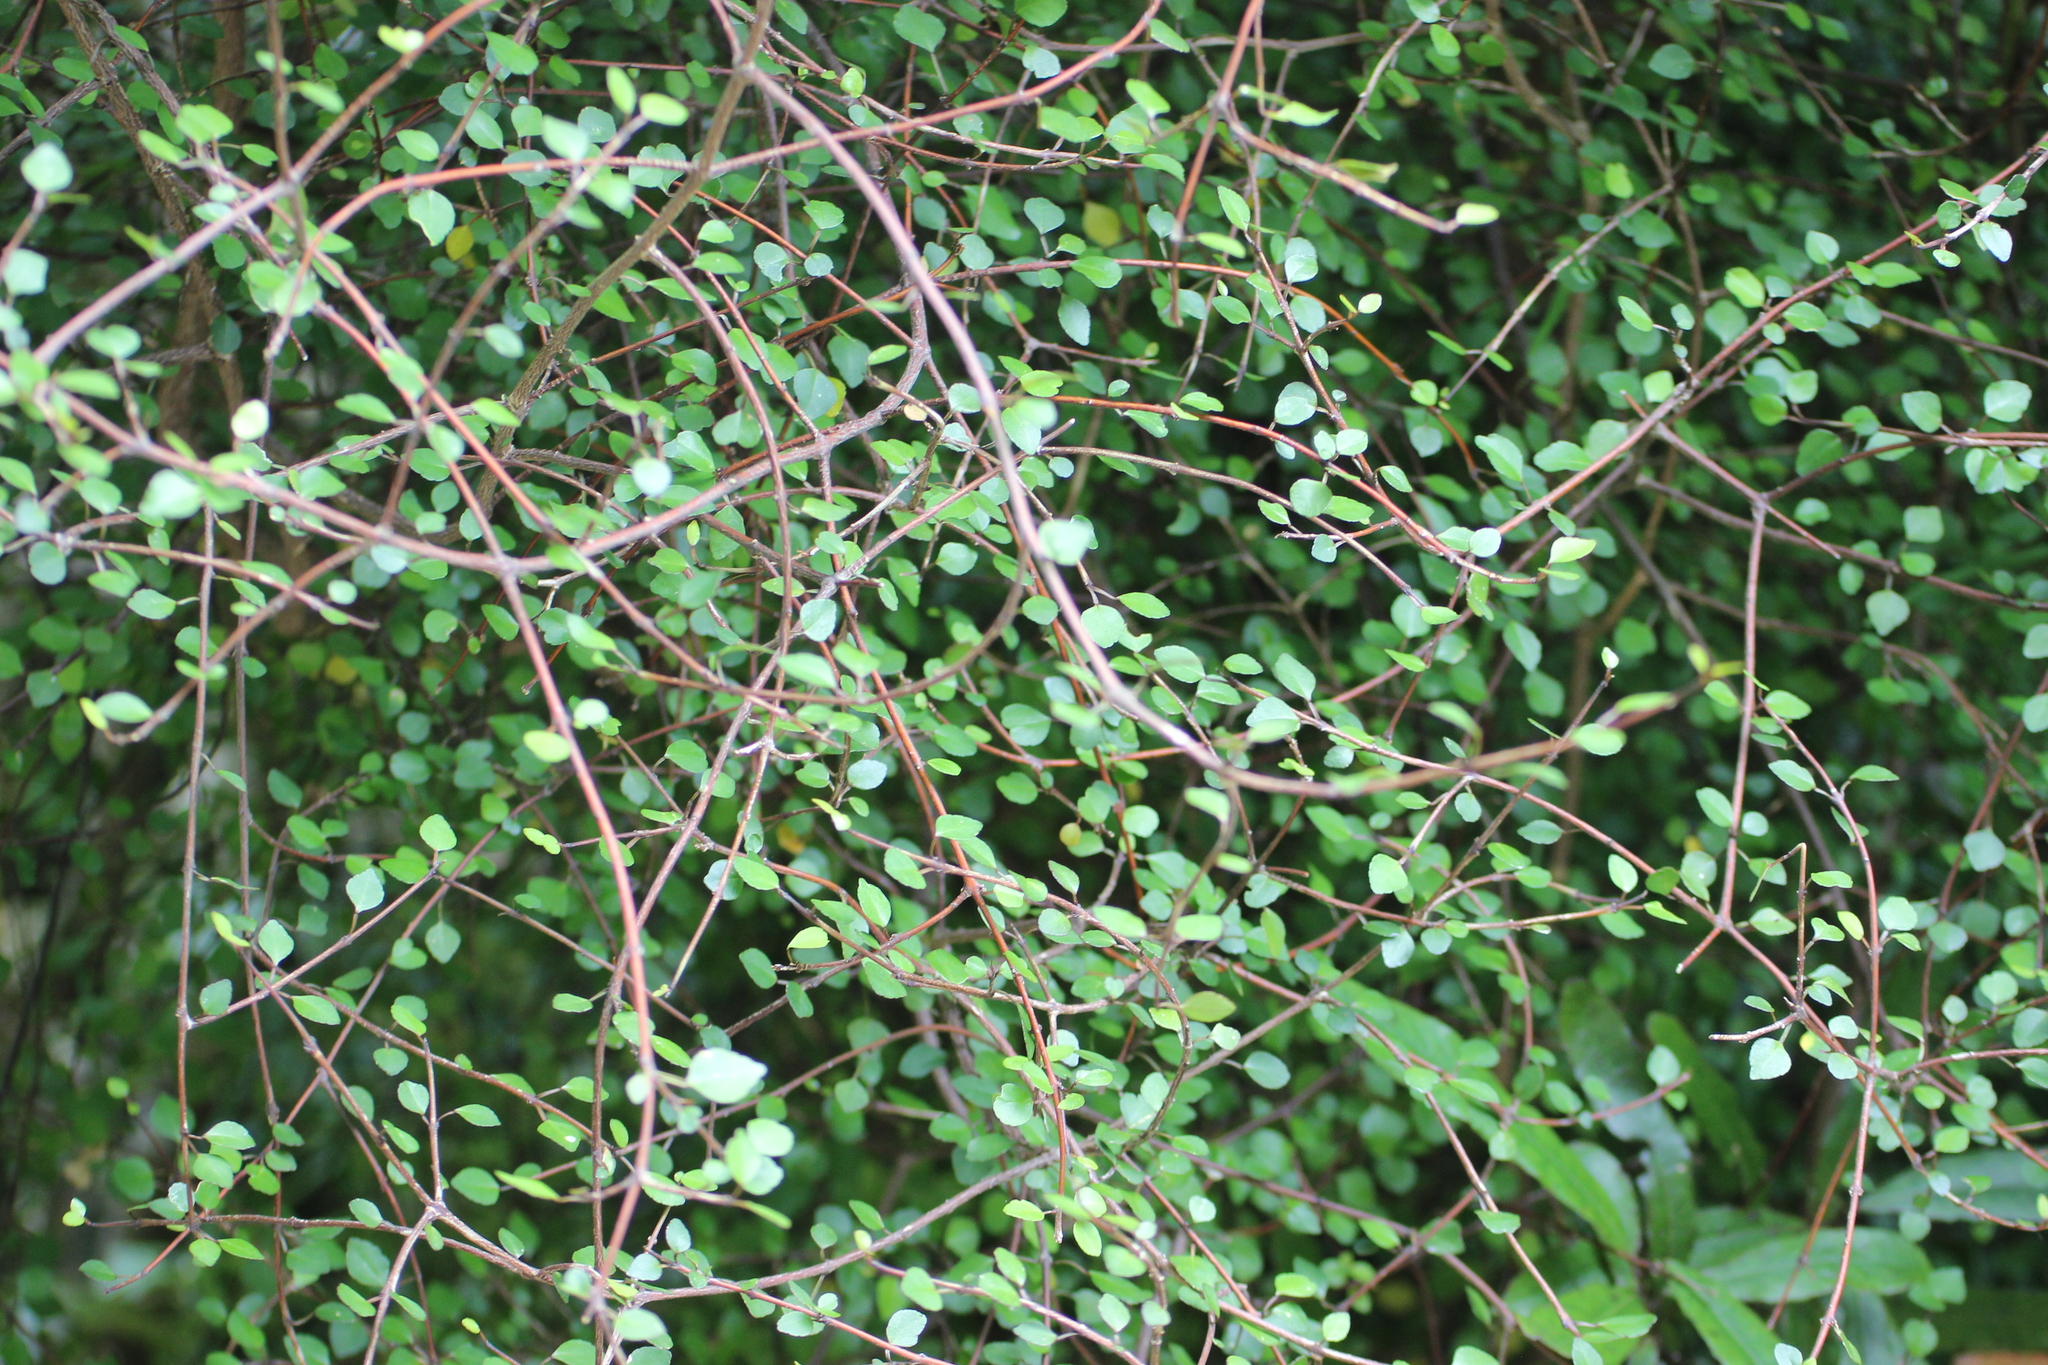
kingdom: Plantae
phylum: Tracheophyta
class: Magnoliopsida
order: Sapindales
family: Rutaceae
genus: Melicope
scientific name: Melicope simplex
